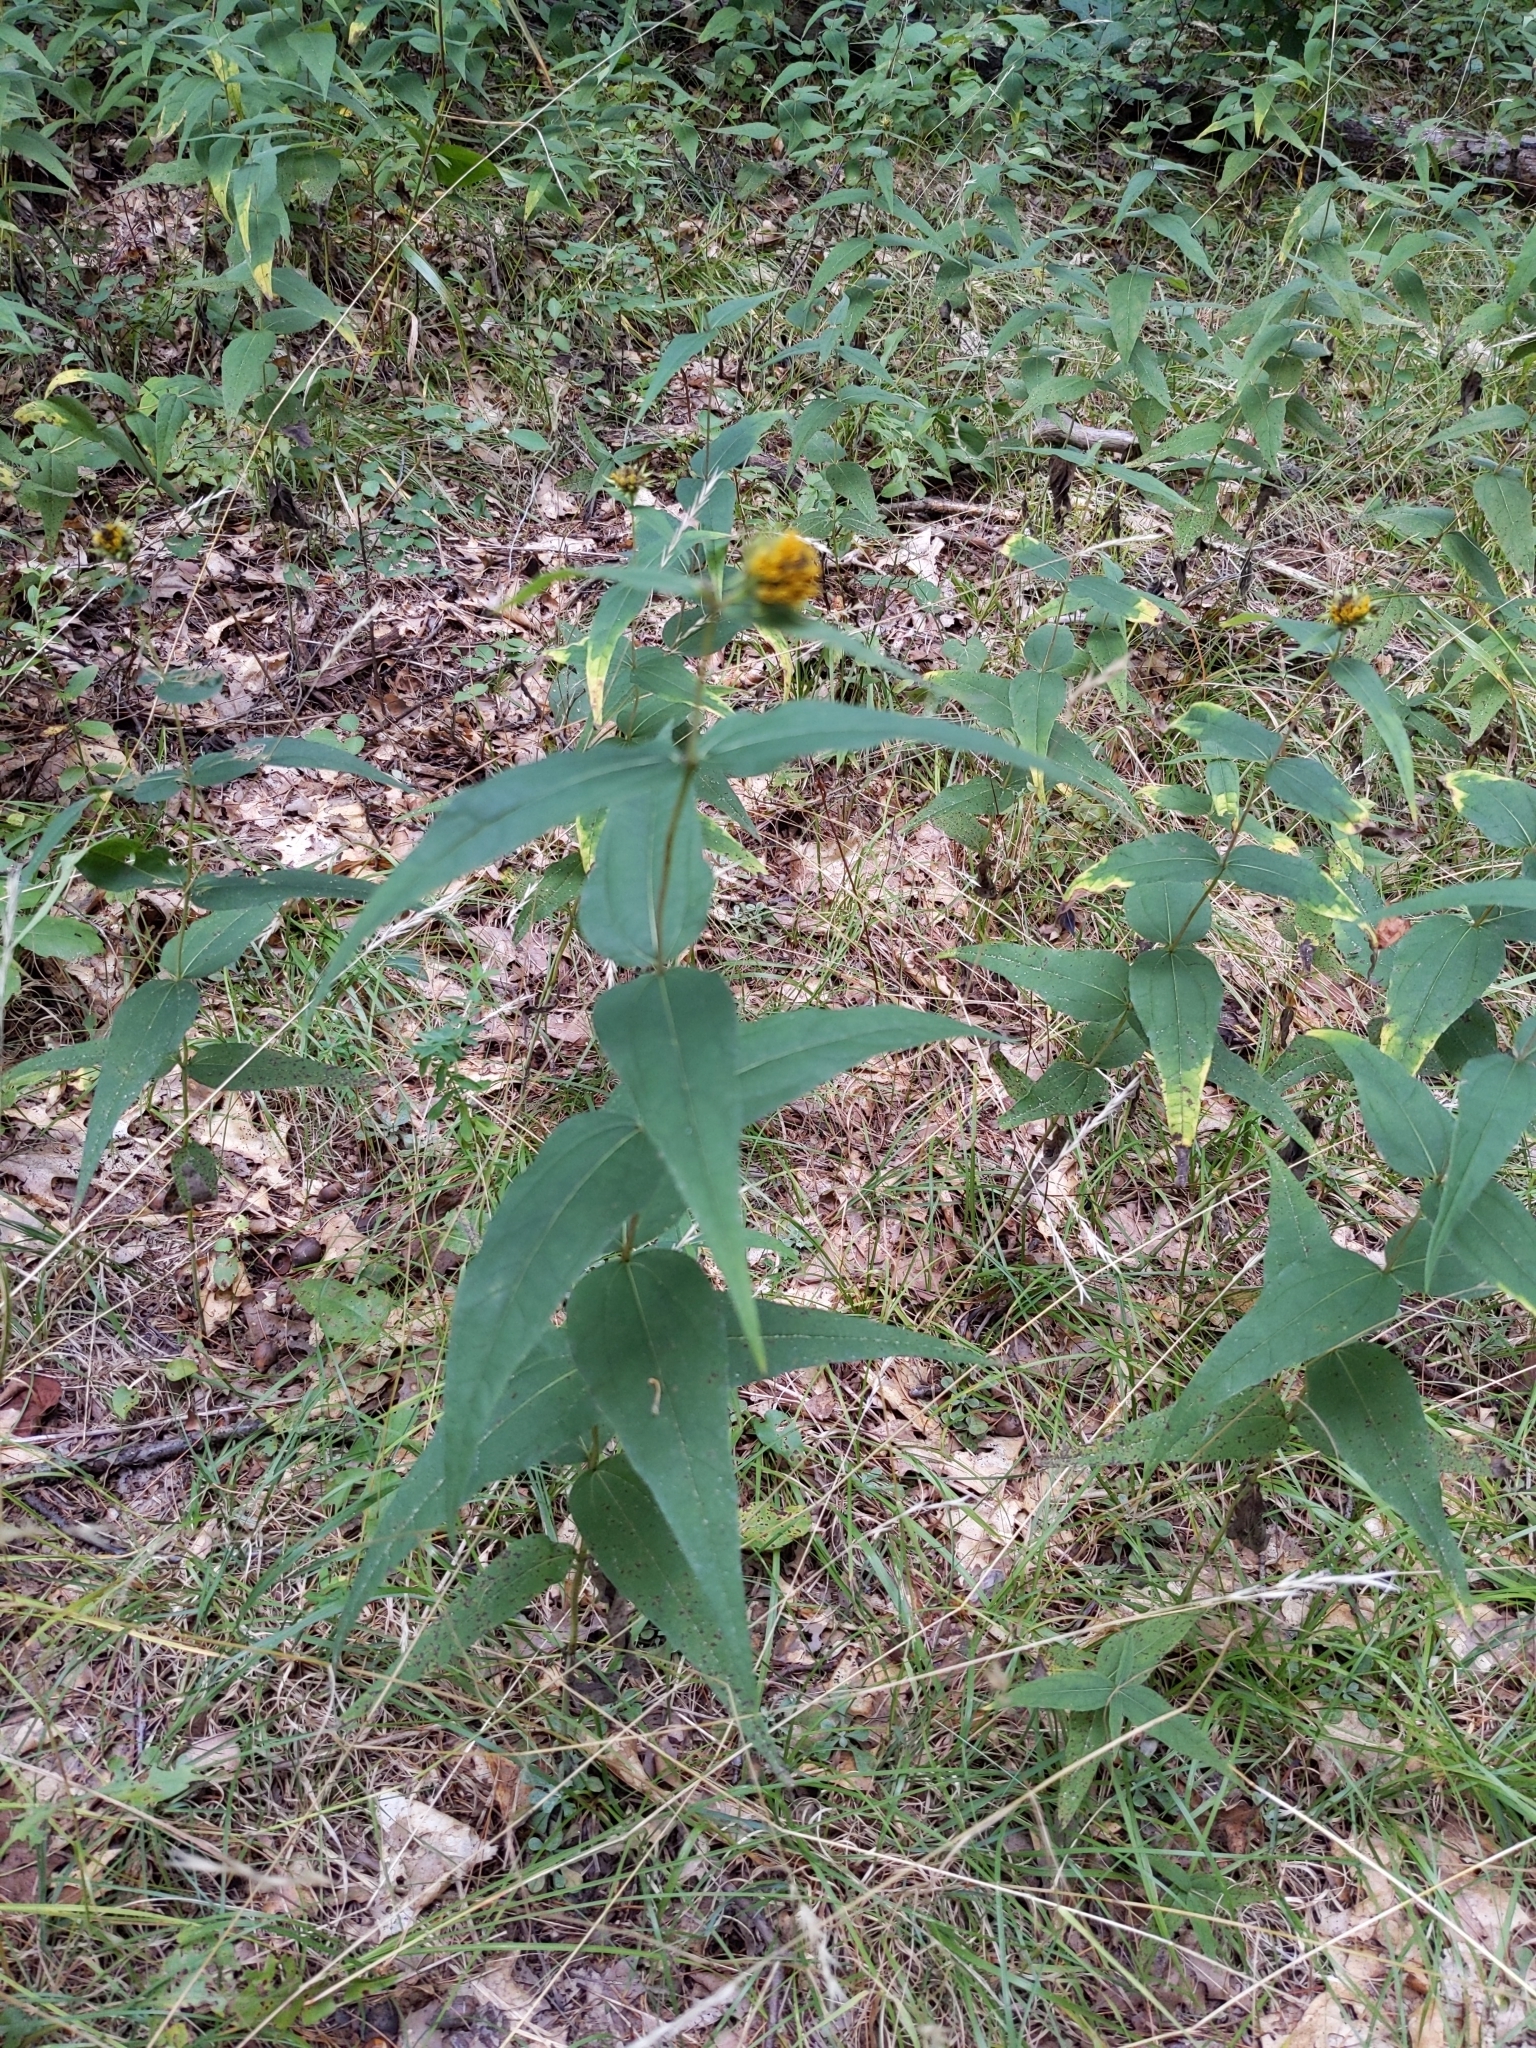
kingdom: Plantae
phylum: Tracheophyta
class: Magnoliopsida
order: Asterales
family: Asteraceae
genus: Helianthus
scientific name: Helianthus divaricatus
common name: Divergent sunflower
